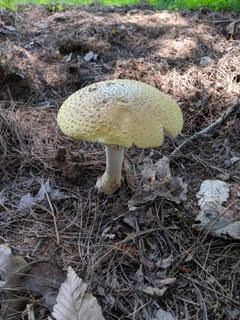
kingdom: Fungi
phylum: Basidiomycota
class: Agaricomycetes
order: Agaricales
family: Amanitaceae
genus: Amanita
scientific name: Amanita muscaria
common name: Fly agaric
